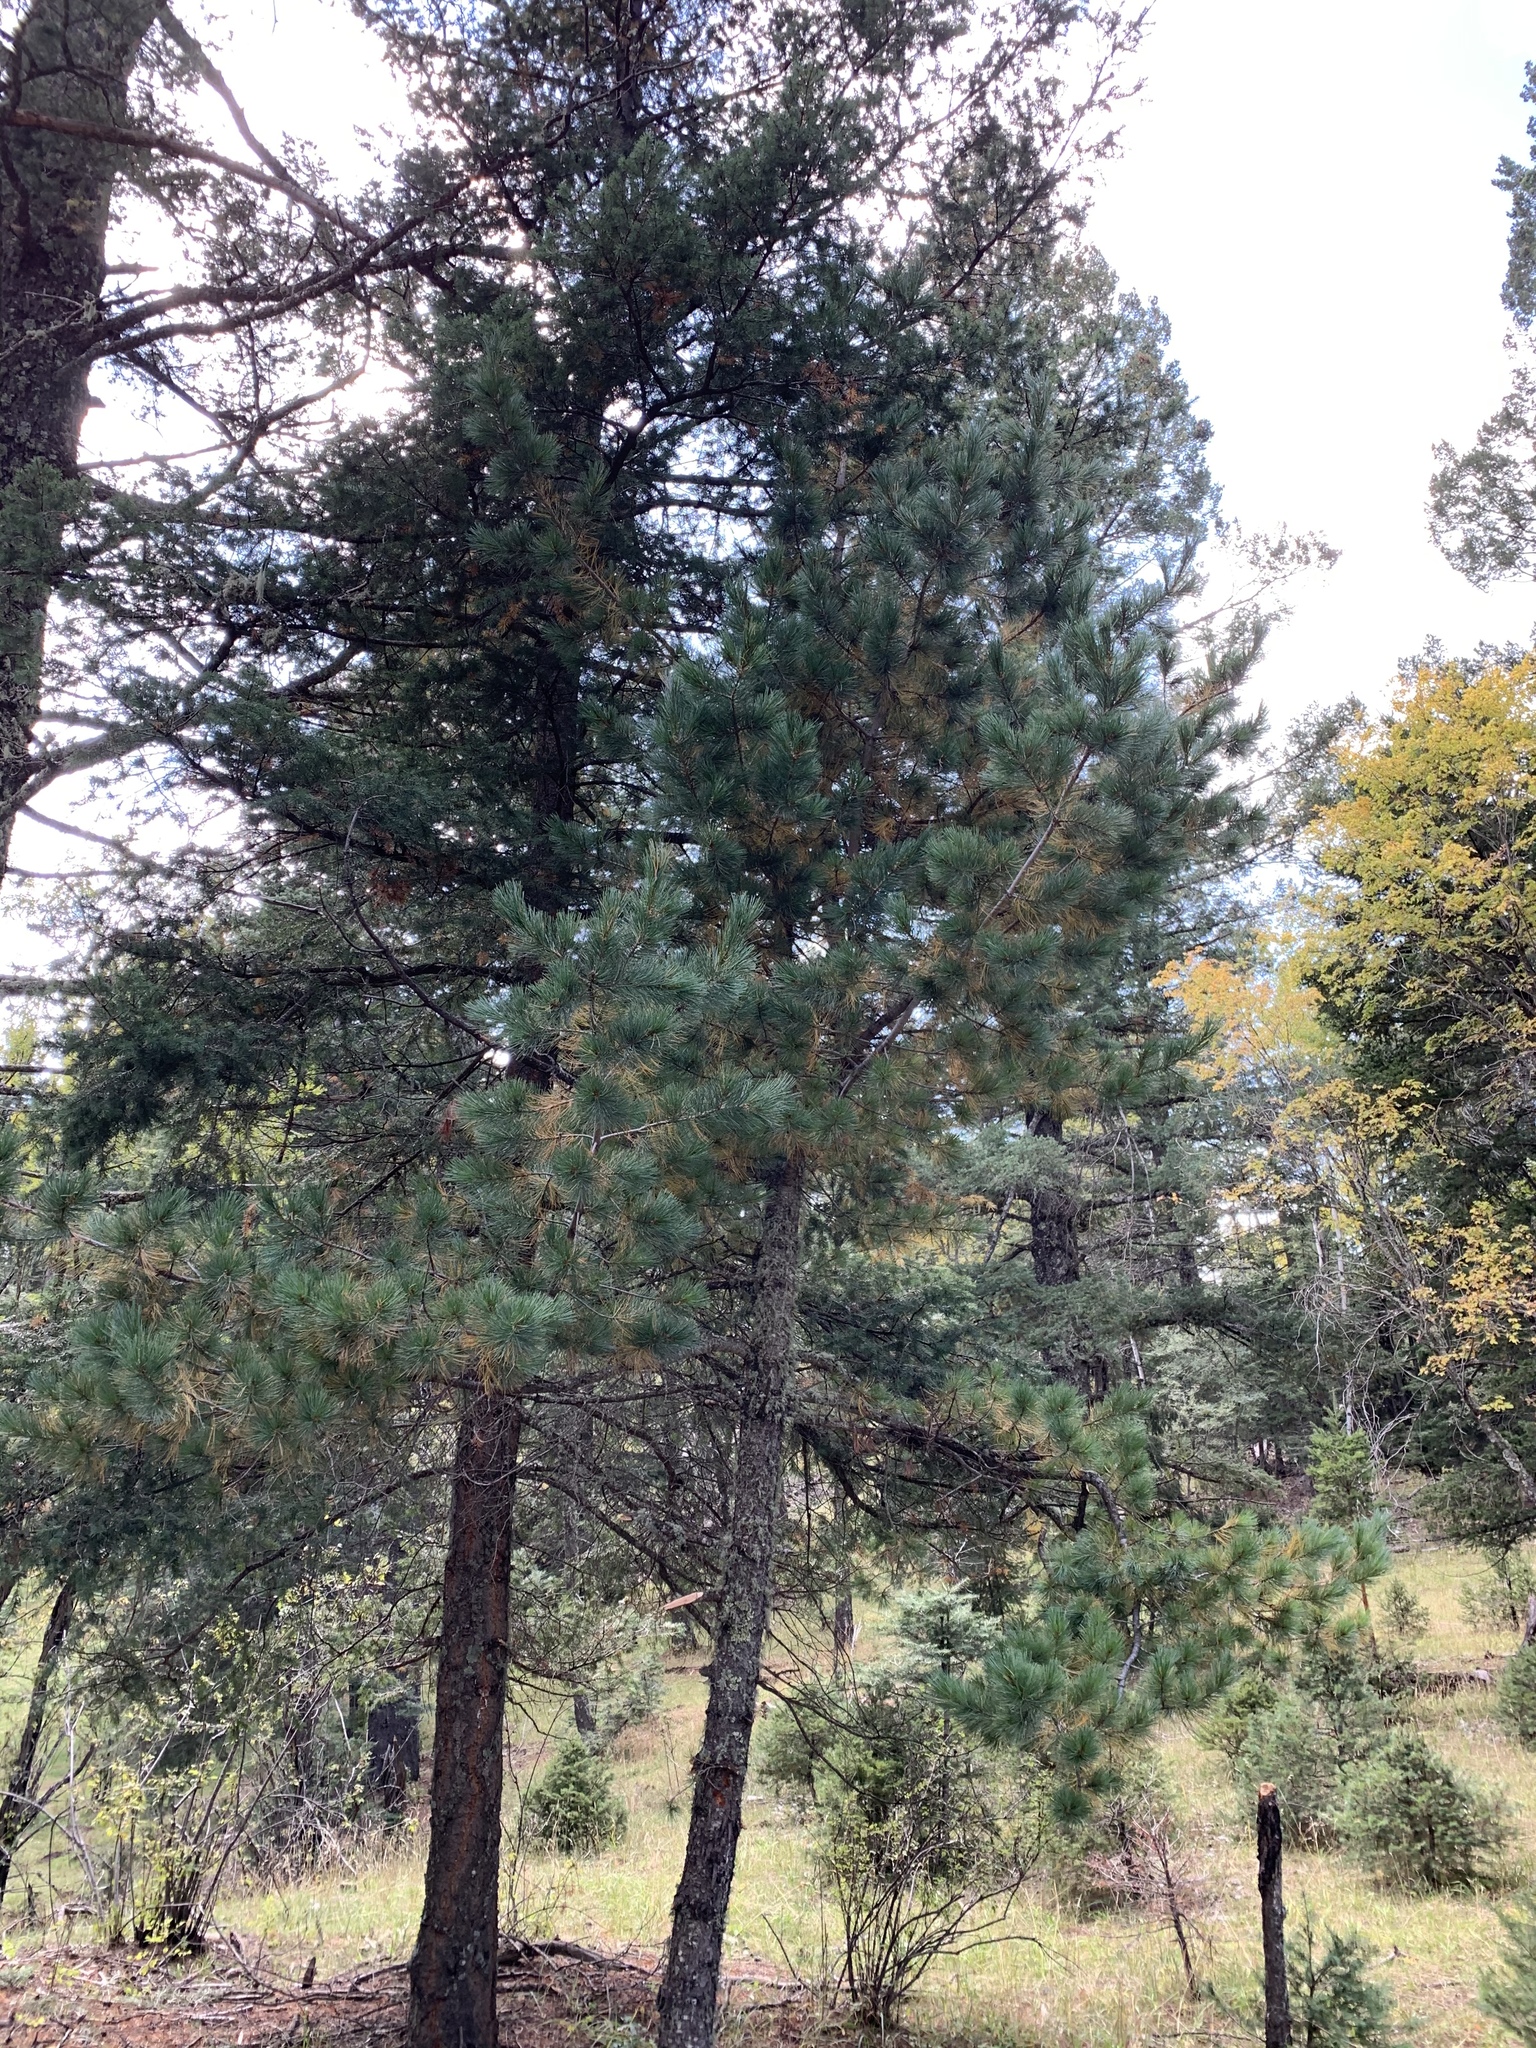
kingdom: Plantae
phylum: Tracheophyta
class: Pinopsida
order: Pinales
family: Pinaceae
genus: Pinus
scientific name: Pinus strobiformis
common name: Southwestern white pine
